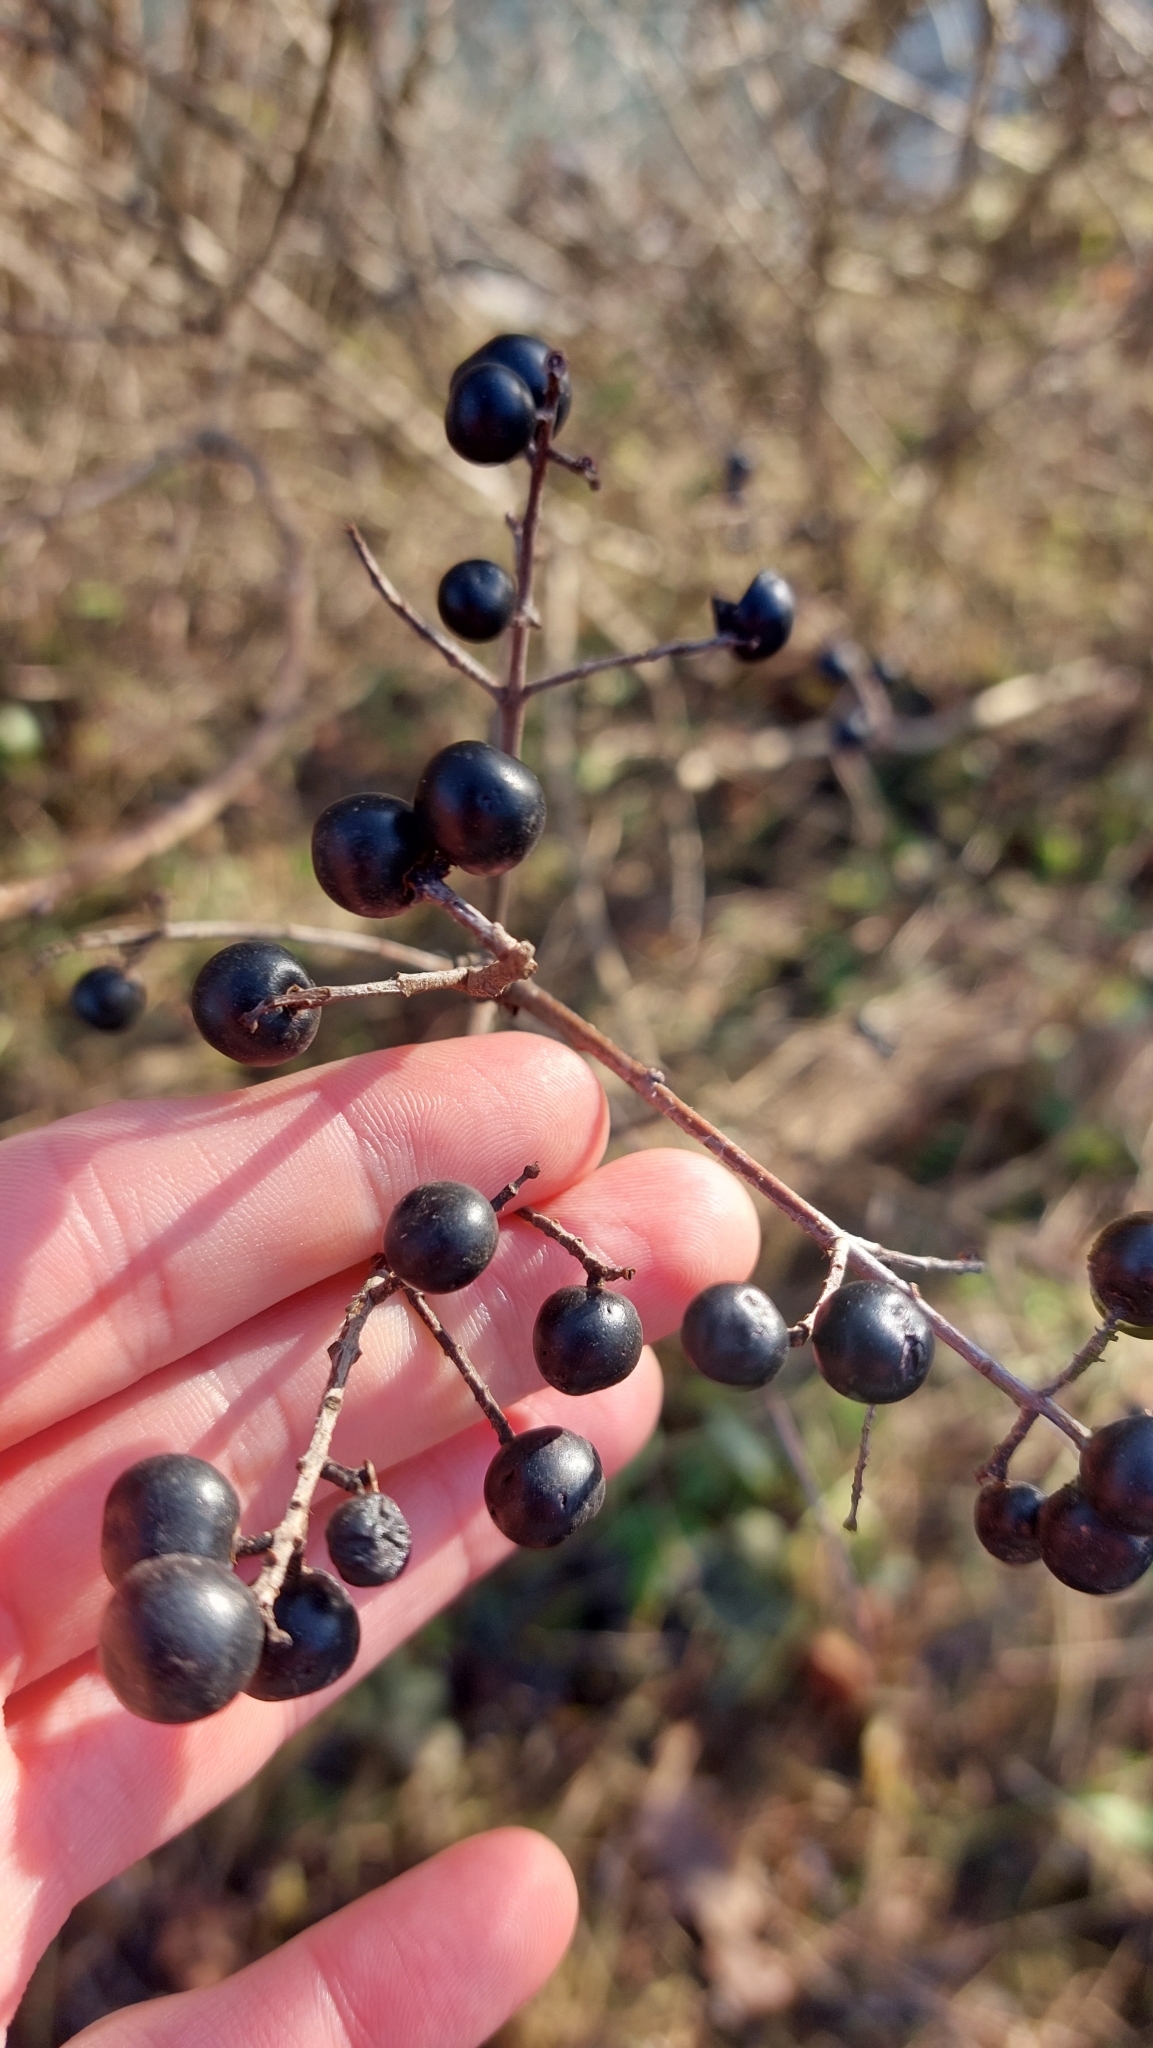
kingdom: Plantae
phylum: Tracheophyta
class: Magnoliopsida
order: Lamiales
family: Oleaceae
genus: Ligustrum
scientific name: Ligustrum vulgare
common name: Wild privet
